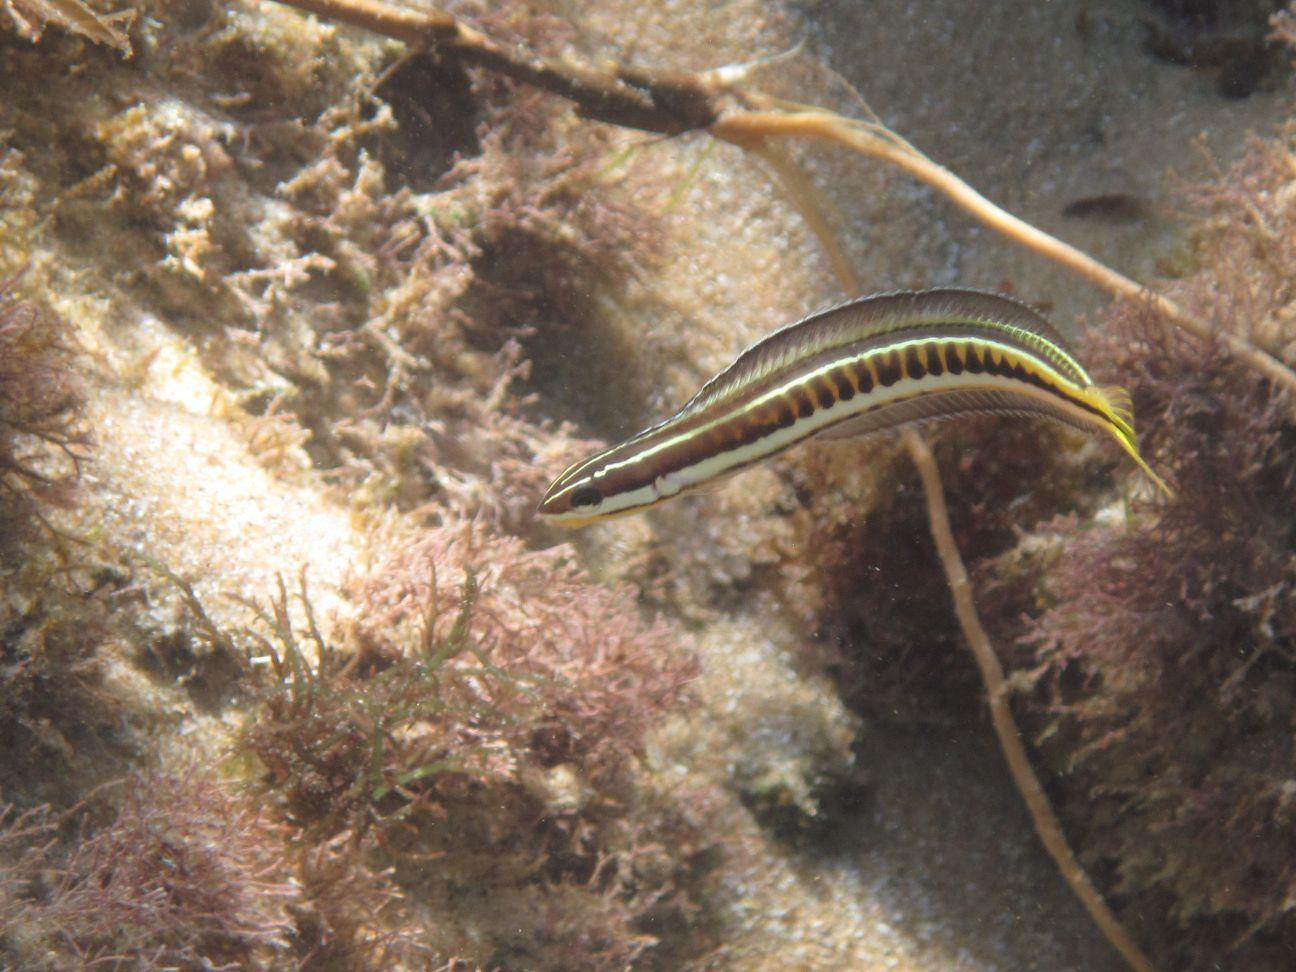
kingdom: Animalia
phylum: Chordata
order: Perciformes
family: Blenniidae
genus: Plagiotremus
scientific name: Plagiotremus tapeinosoma
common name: Hit and run blenny
